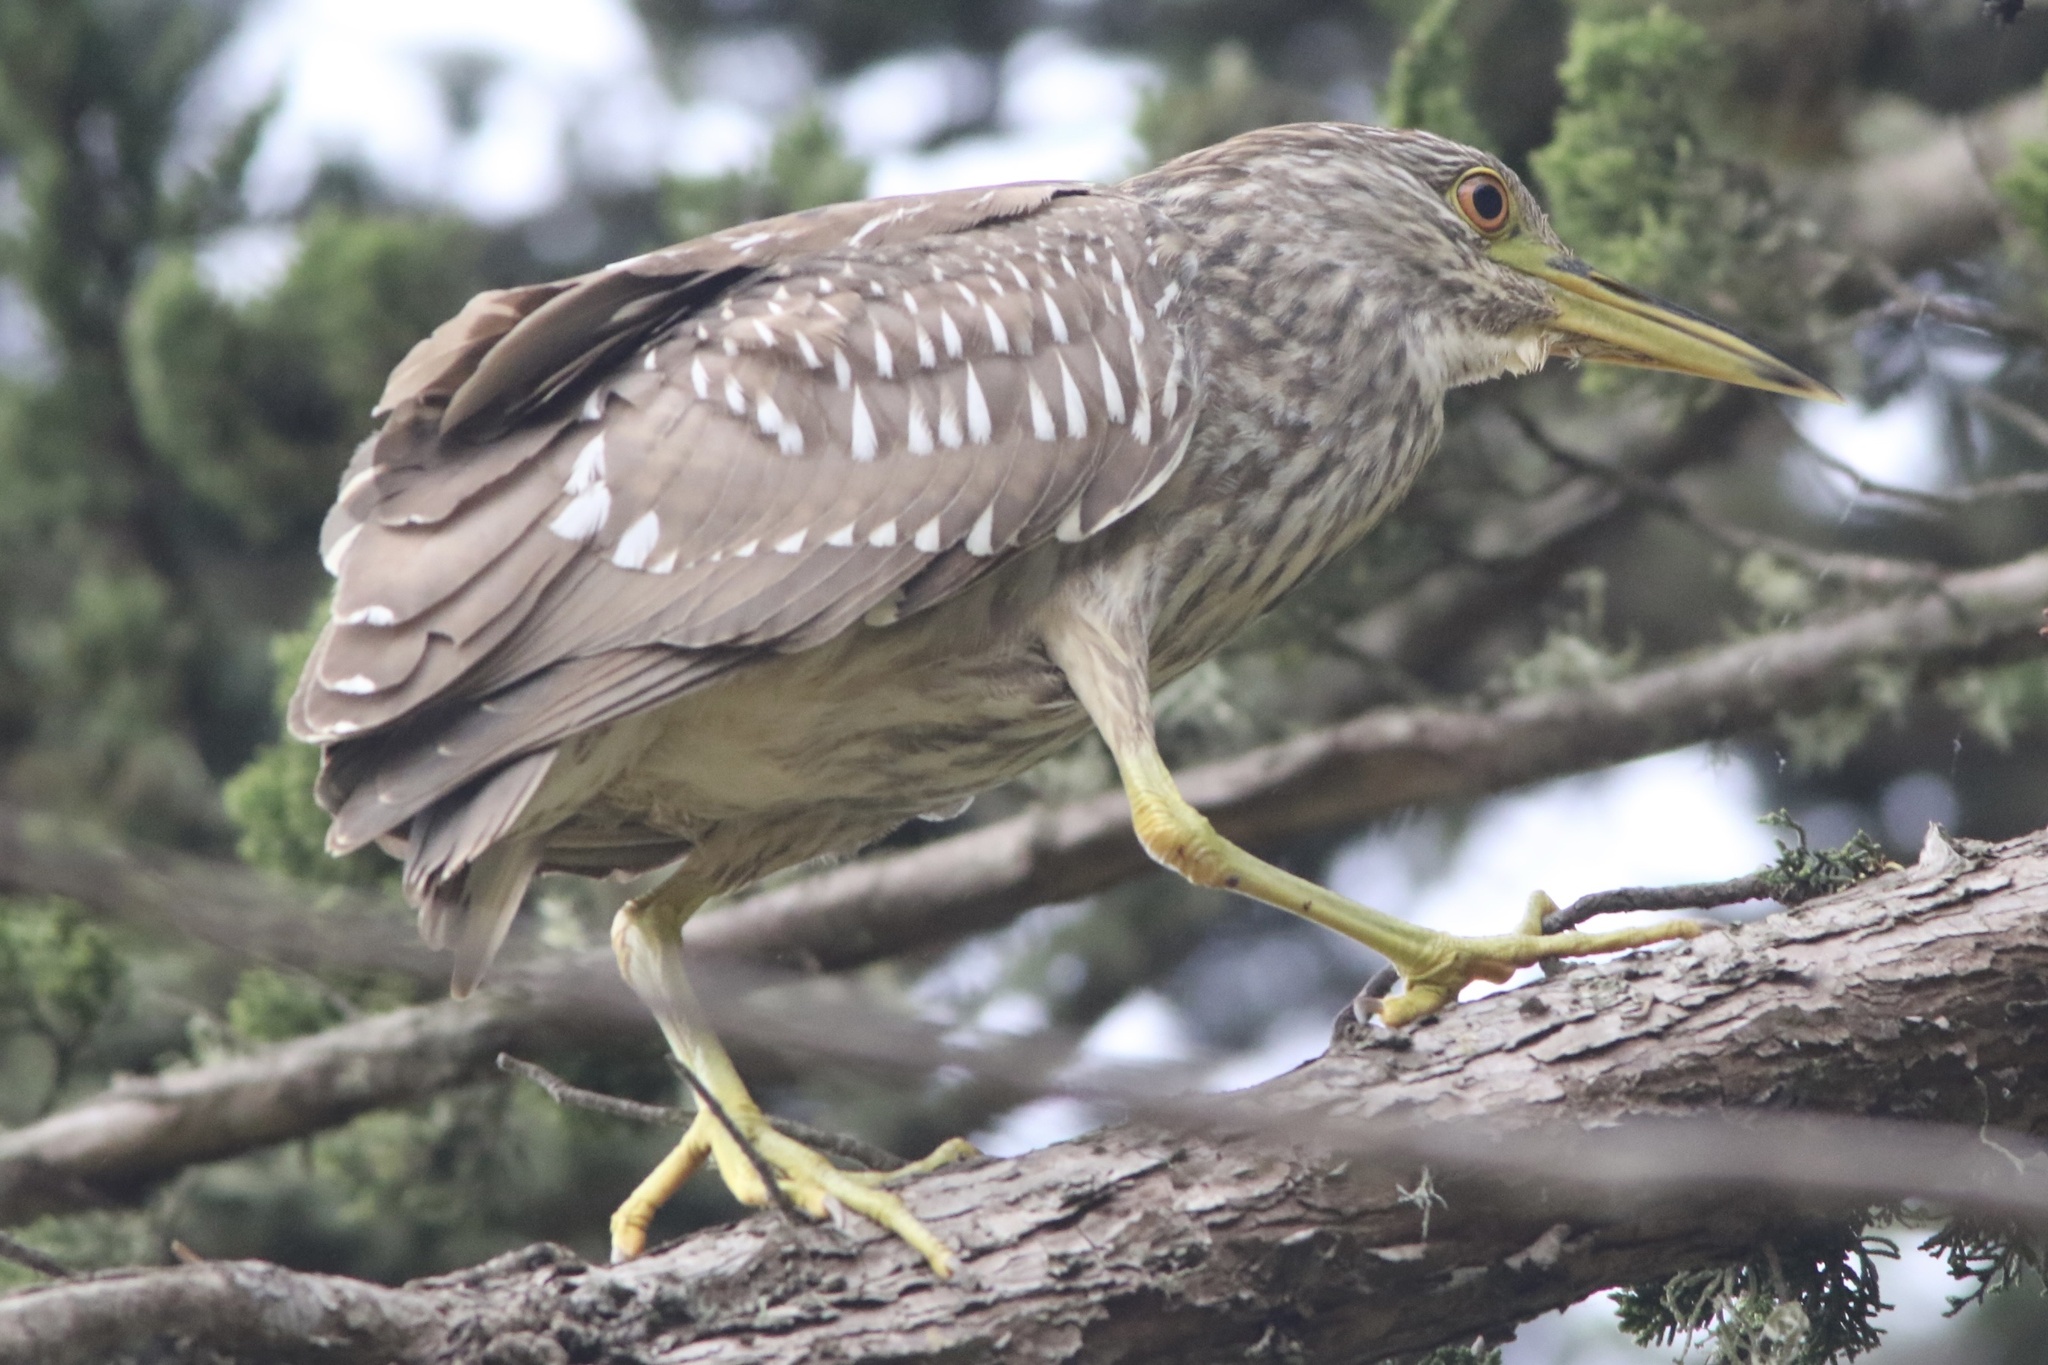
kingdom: Animalia
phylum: Chordata
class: Aves
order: Pelecaniformes
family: Ardeidae
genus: Nycticorax
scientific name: Nycticorax nycticorax
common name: Black-crowned night heron
